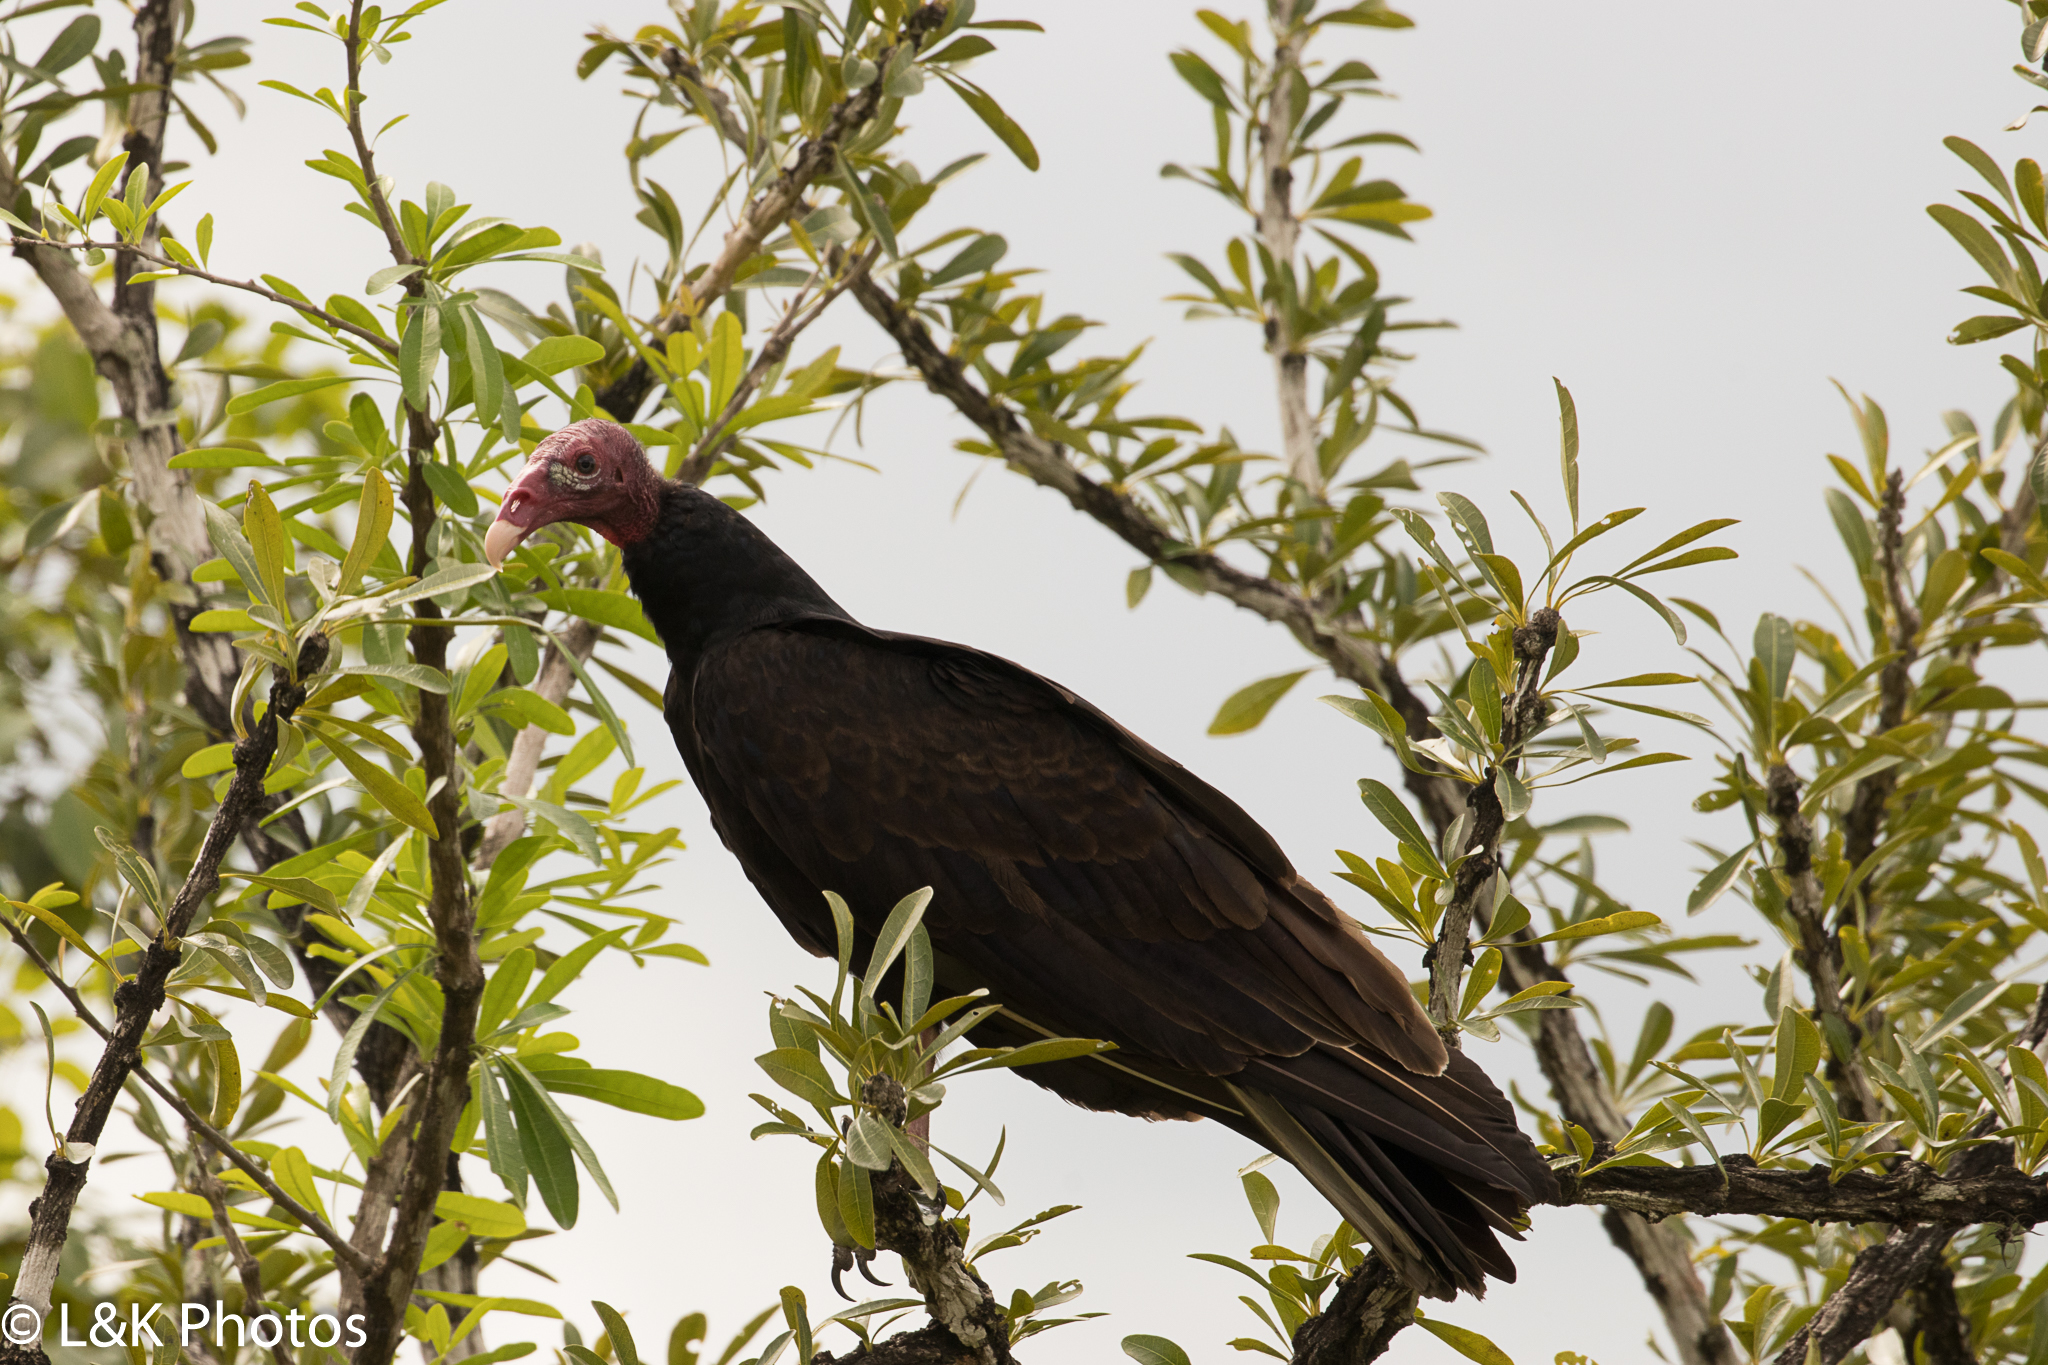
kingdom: Animalia
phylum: Chordata
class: Aves
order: Accipitriformes
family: Cathartidae
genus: Cathartes
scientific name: Cathartes aura
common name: Turkey vulture
